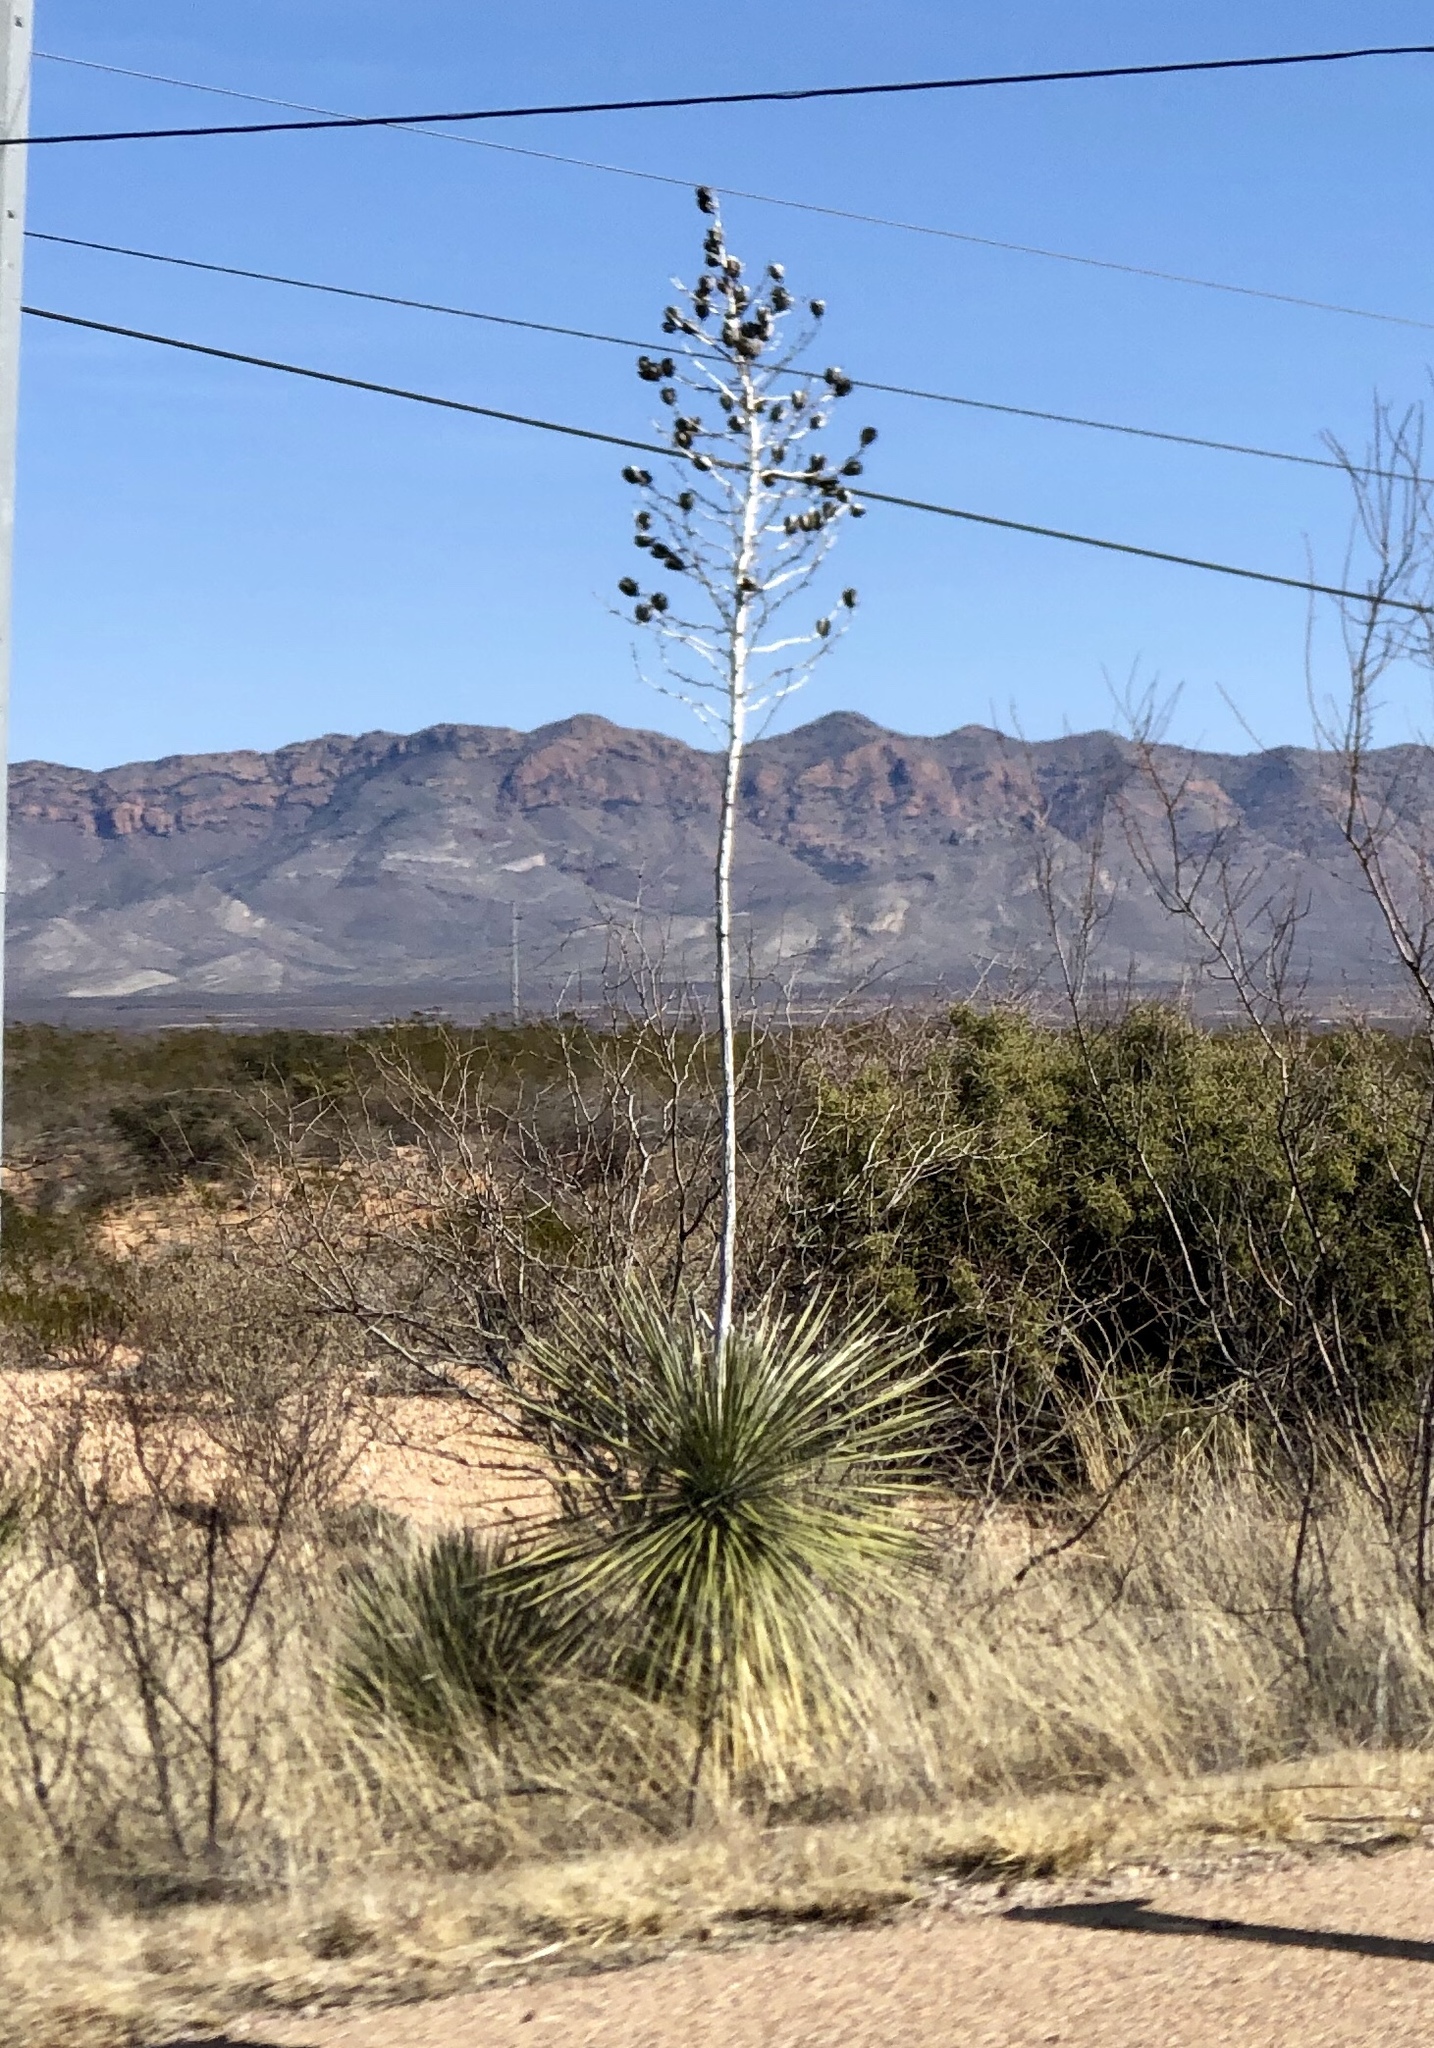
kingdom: Plantae
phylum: Tracheophyta
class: Liliopsida
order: Asparagales
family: Asparagaceae
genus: Yucca
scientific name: Yucca elata
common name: Palmella
